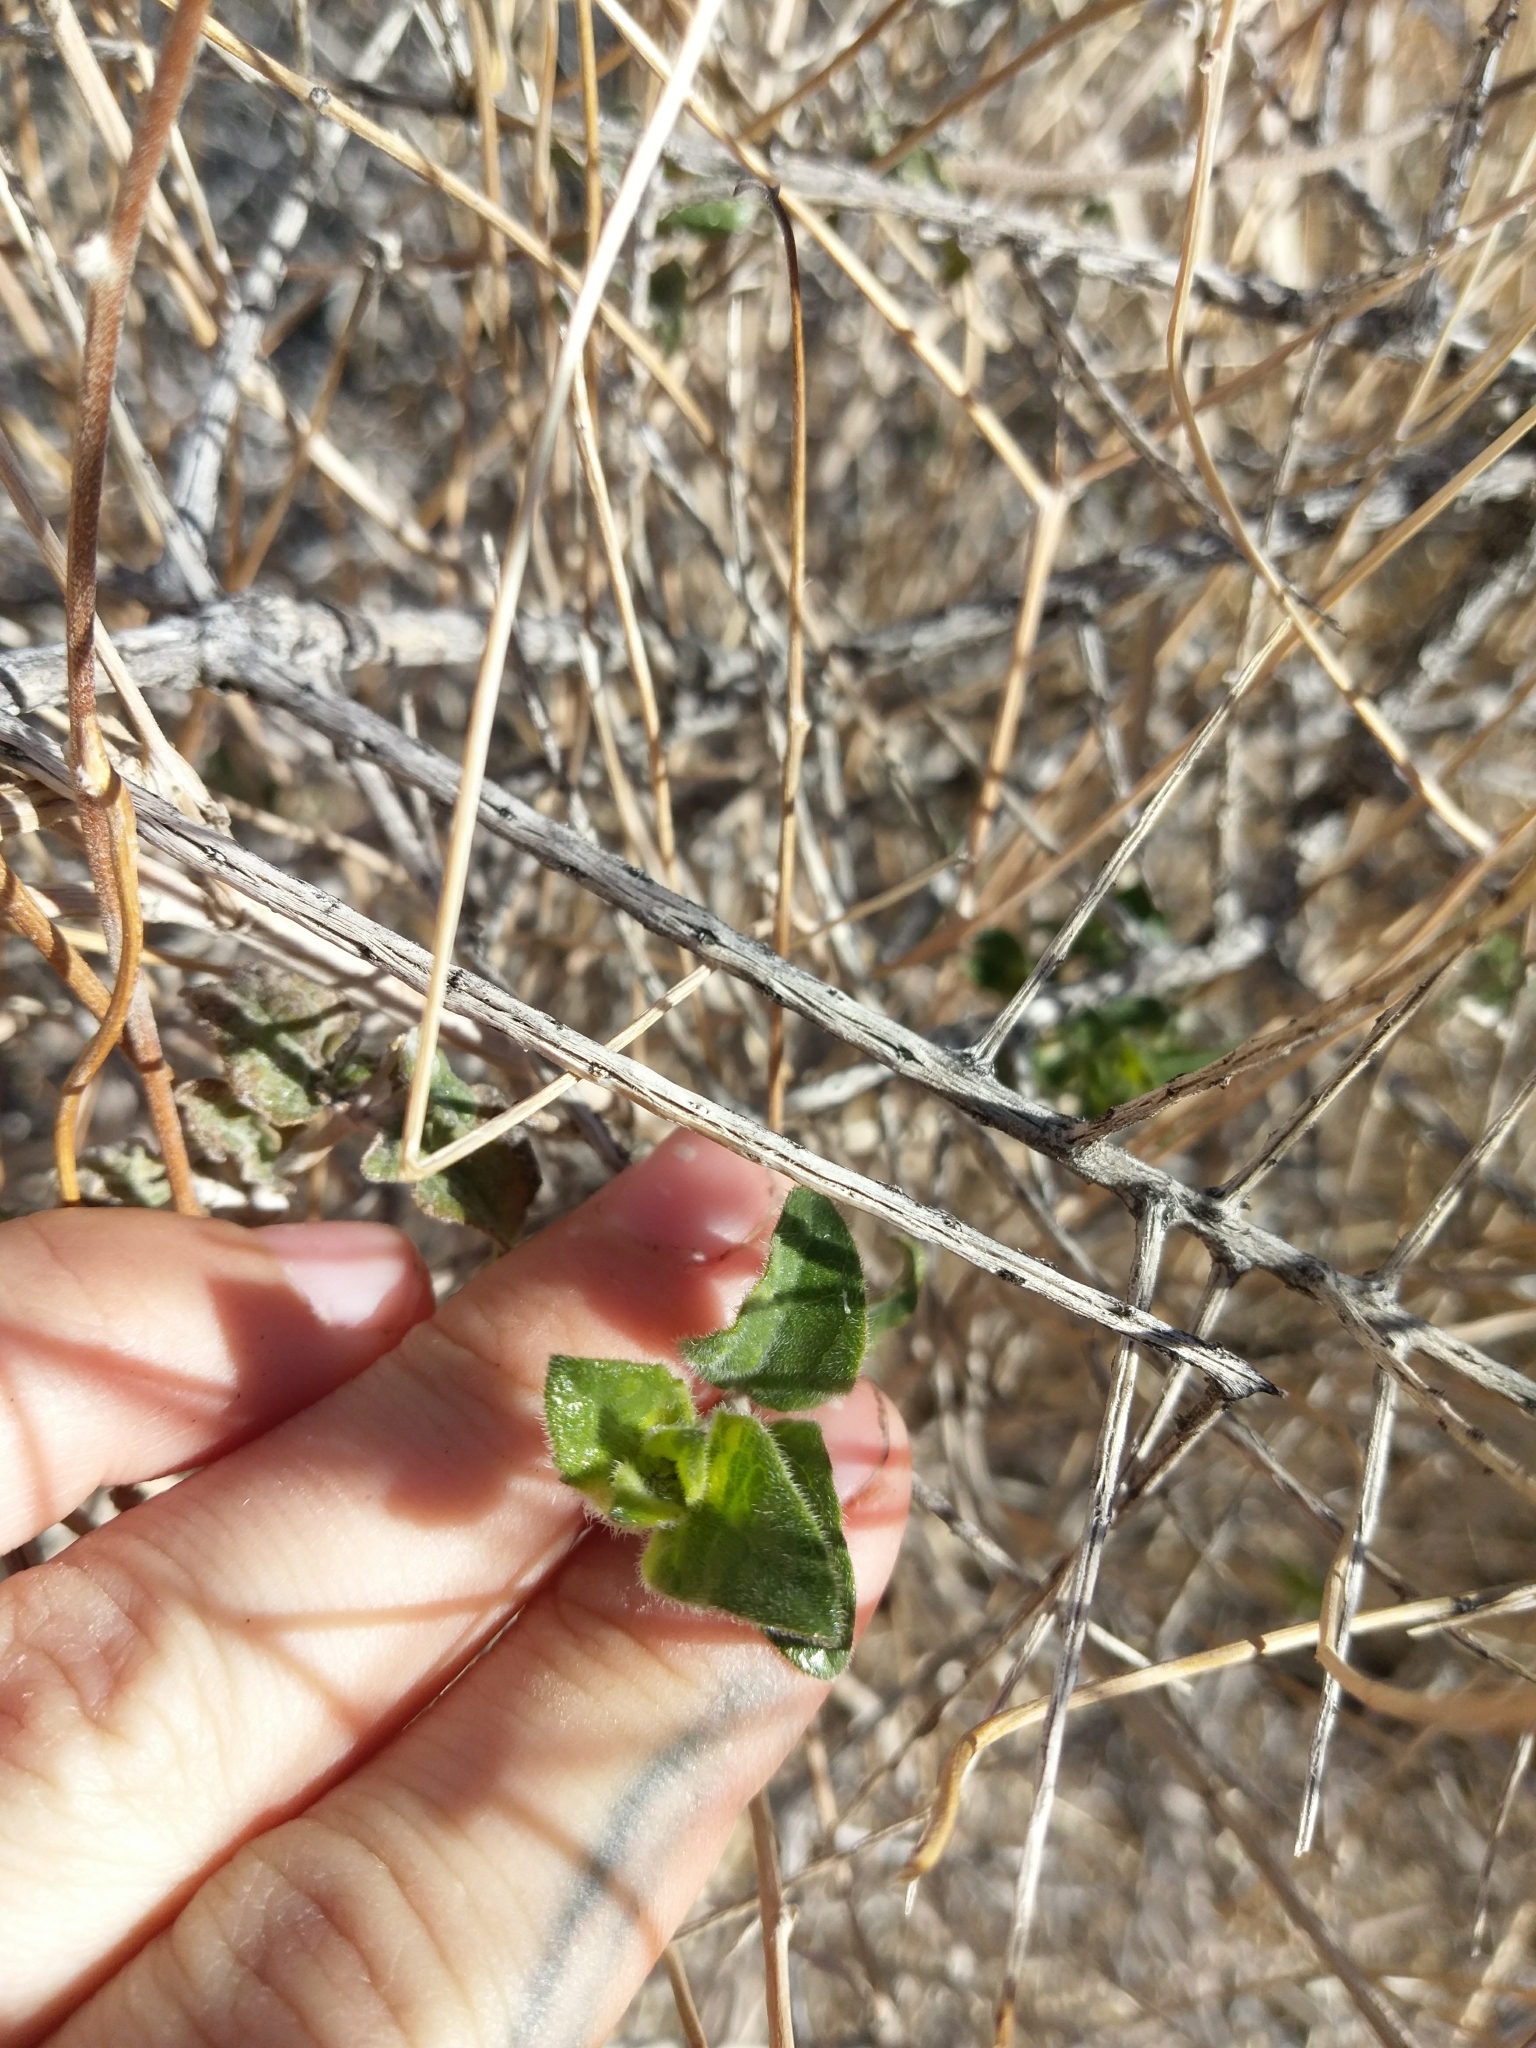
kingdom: Plantae
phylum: Tracheophyta
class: Magnoliopsida
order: Asterales
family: Asteraceae
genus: Bahiopsis
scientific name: Bahiopsis parishii
